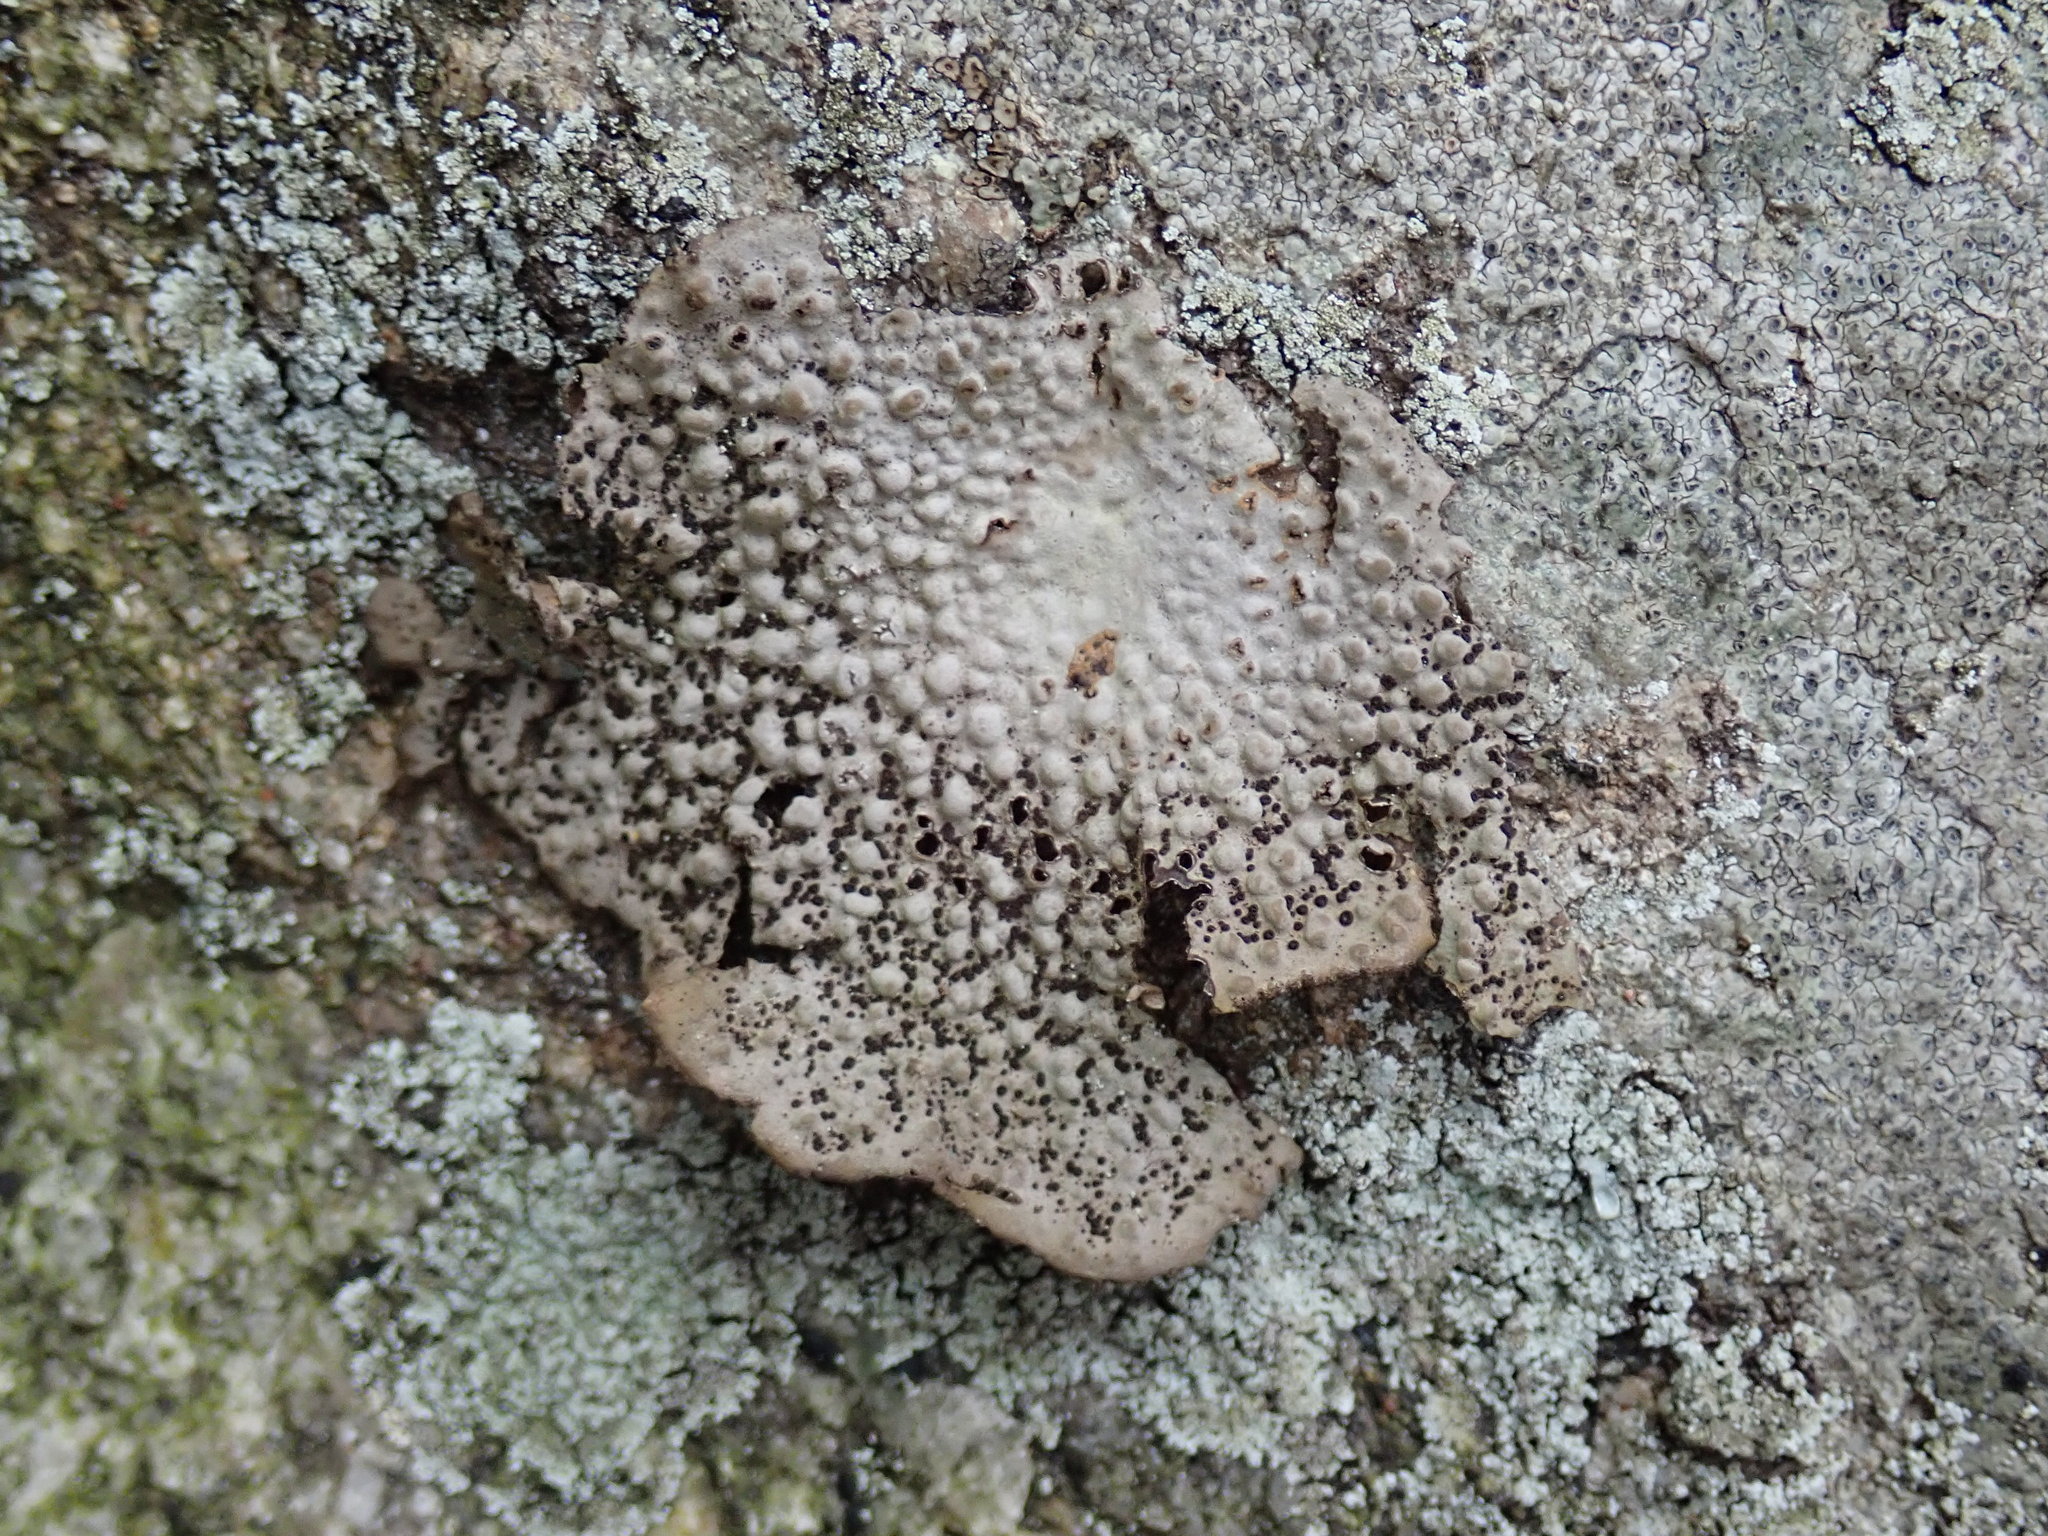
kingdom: Fungi
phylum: Ascomycota
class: Lecanoromycetes
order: Umbilicariales
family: Umbilicariaceae
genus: Lasallia
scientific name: Lasallia papulosa
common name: Common toadskin lichen
